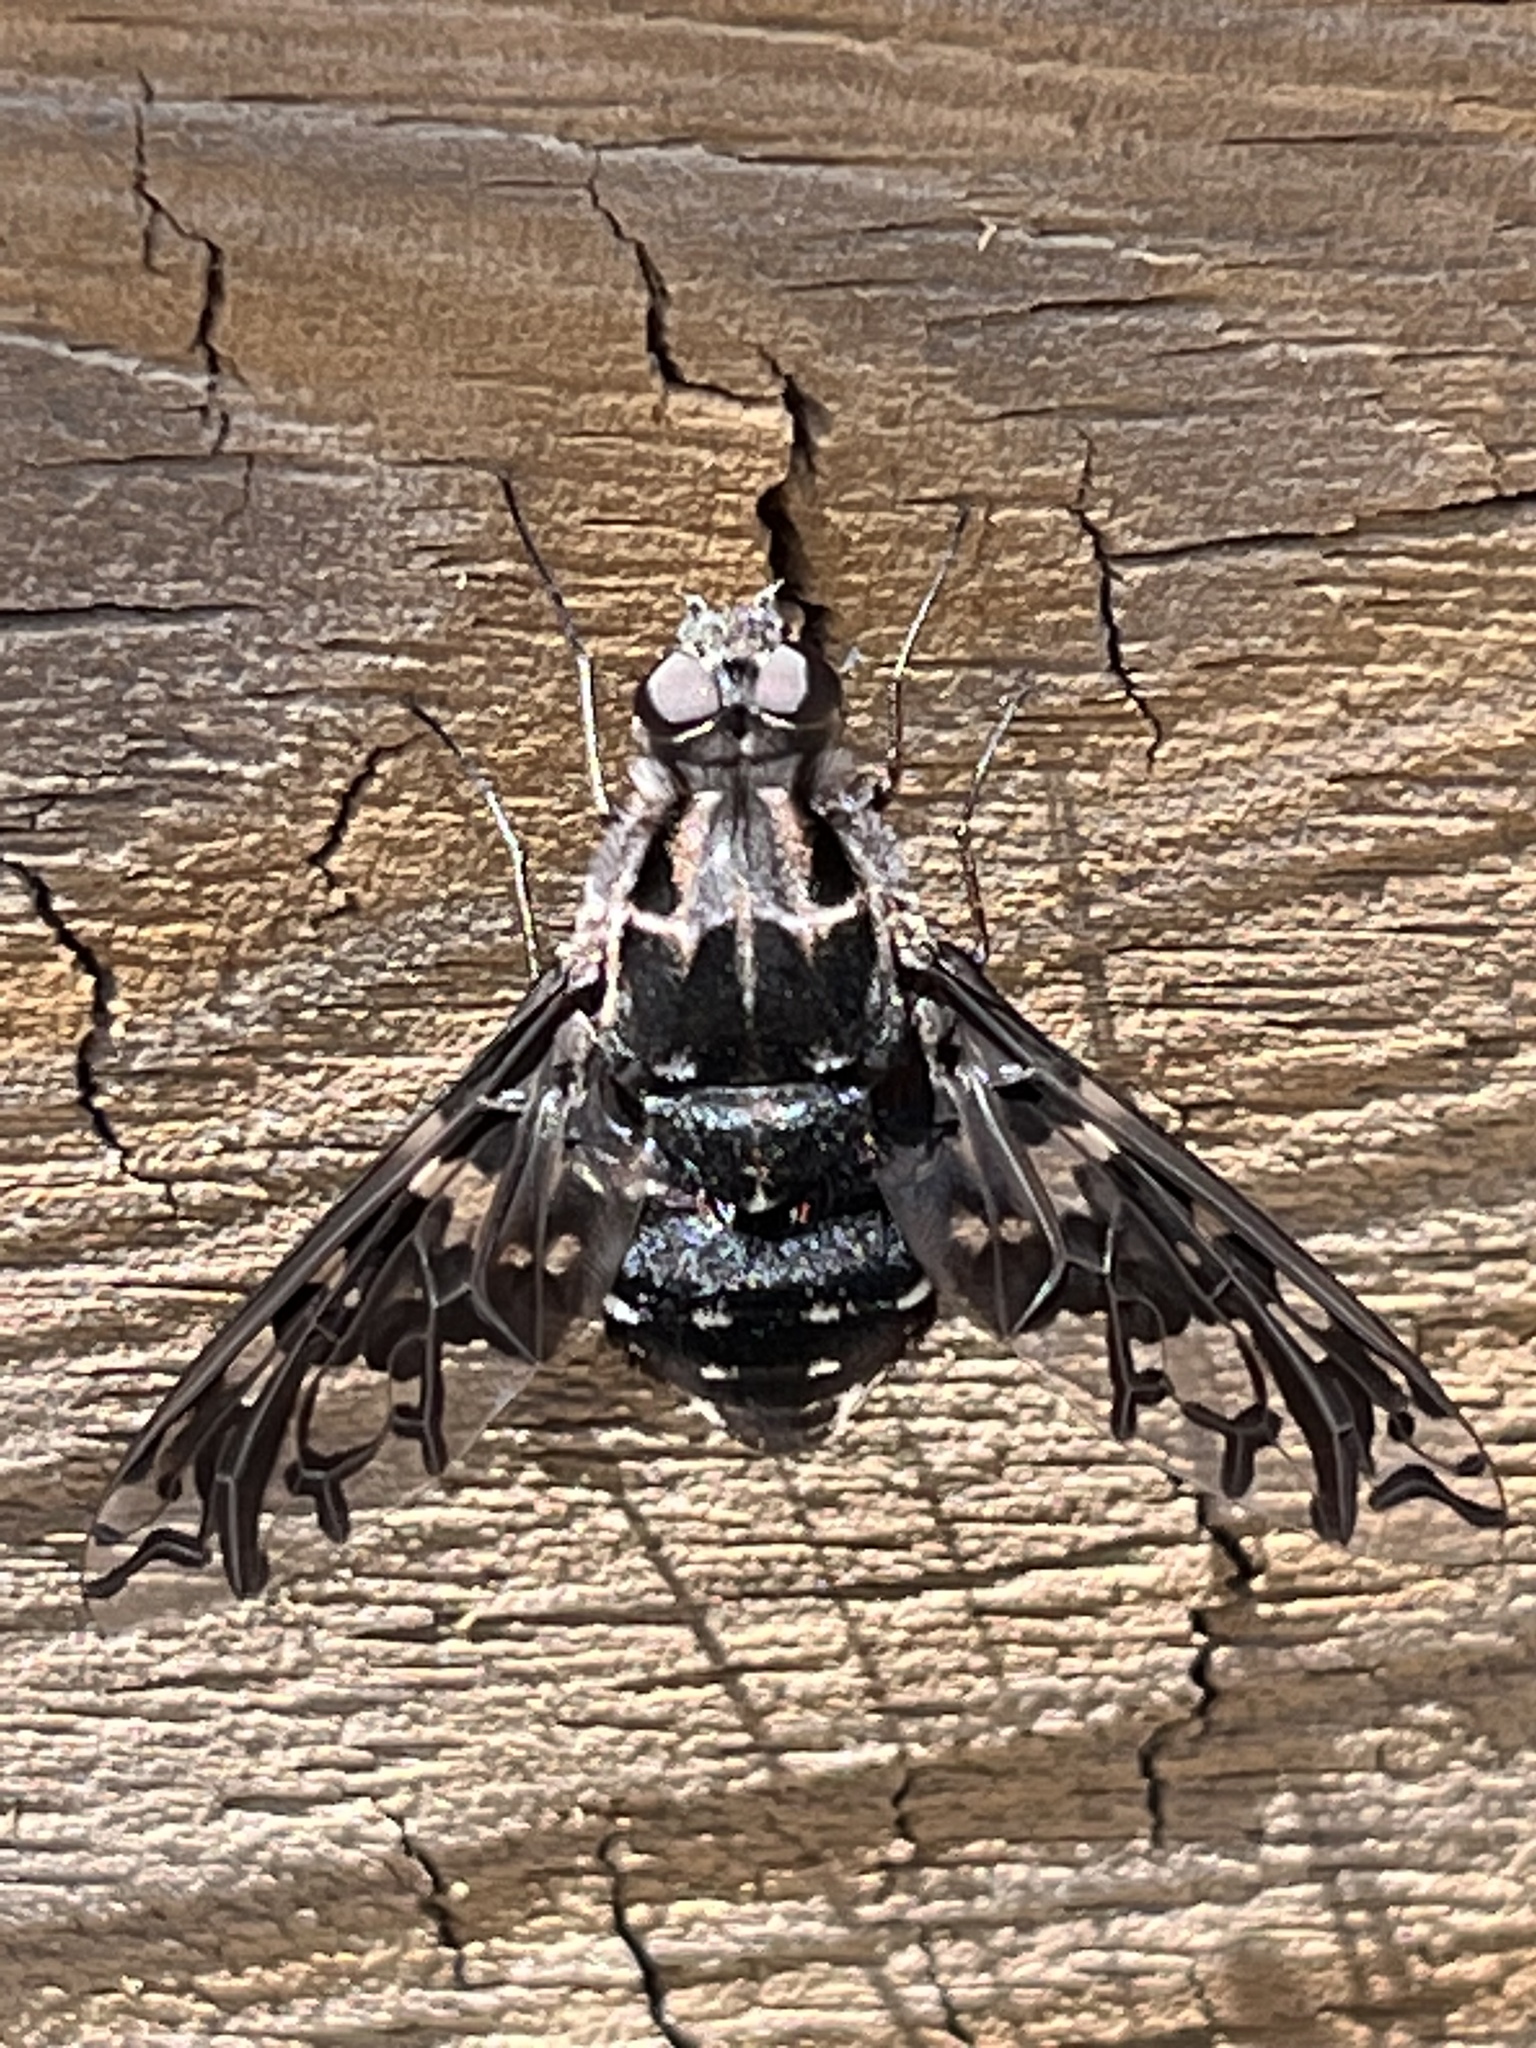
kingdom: Animalia
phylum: Arthropoda
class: Insecta
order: Diptera
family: Bombyliidae
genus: Xenox
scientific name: Xenox tigrinus
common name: Tiger bee fly
